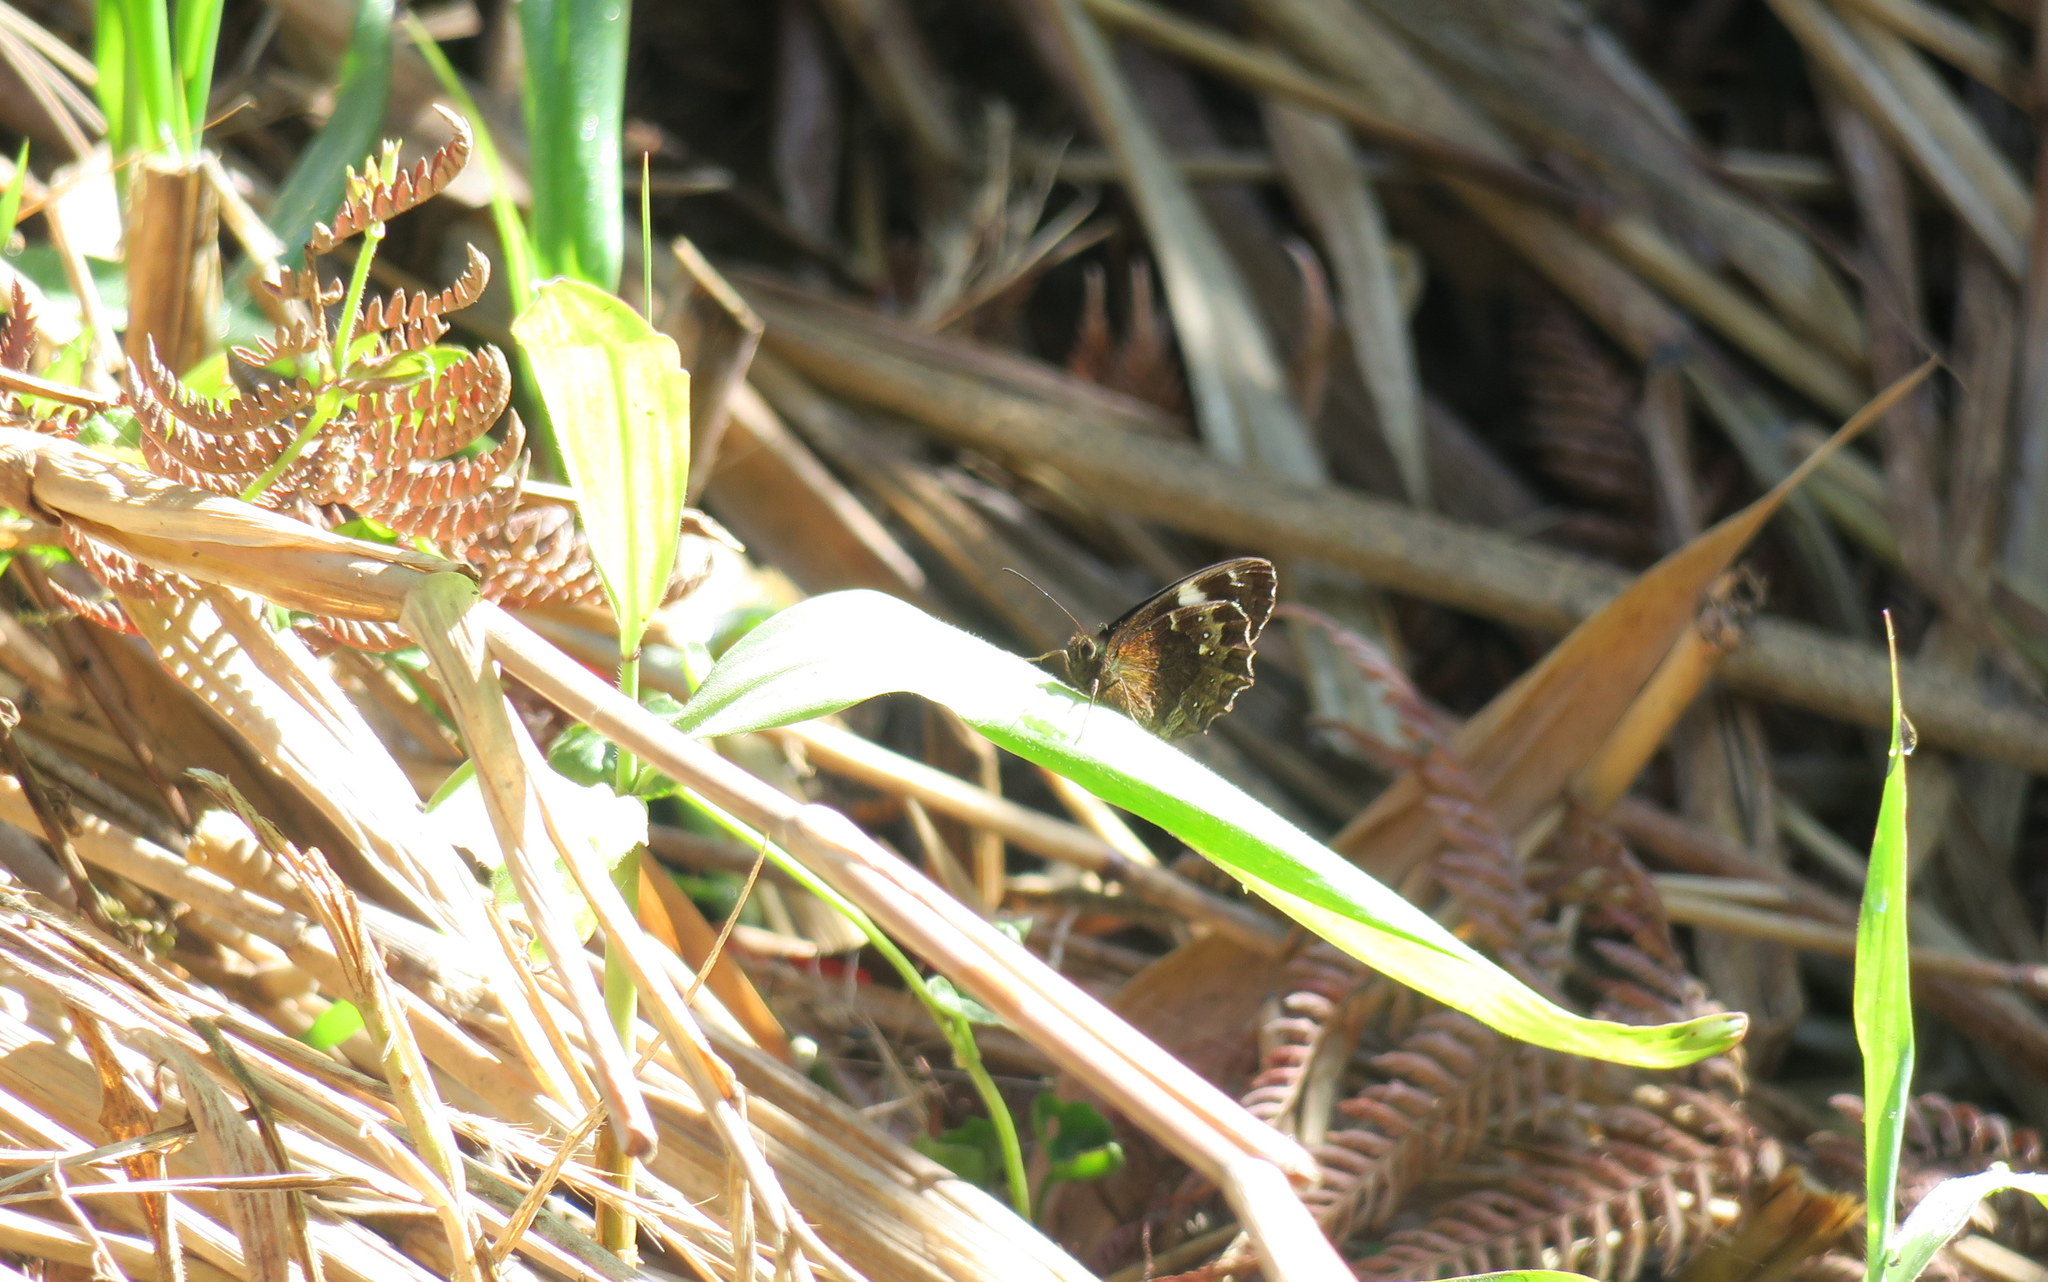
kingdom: Animalia
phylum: Arthropoda
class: Insecta
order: Lepidoptera
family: Nymphalidae
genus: Pedaliodes
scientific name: Pedaliodes peucestas
